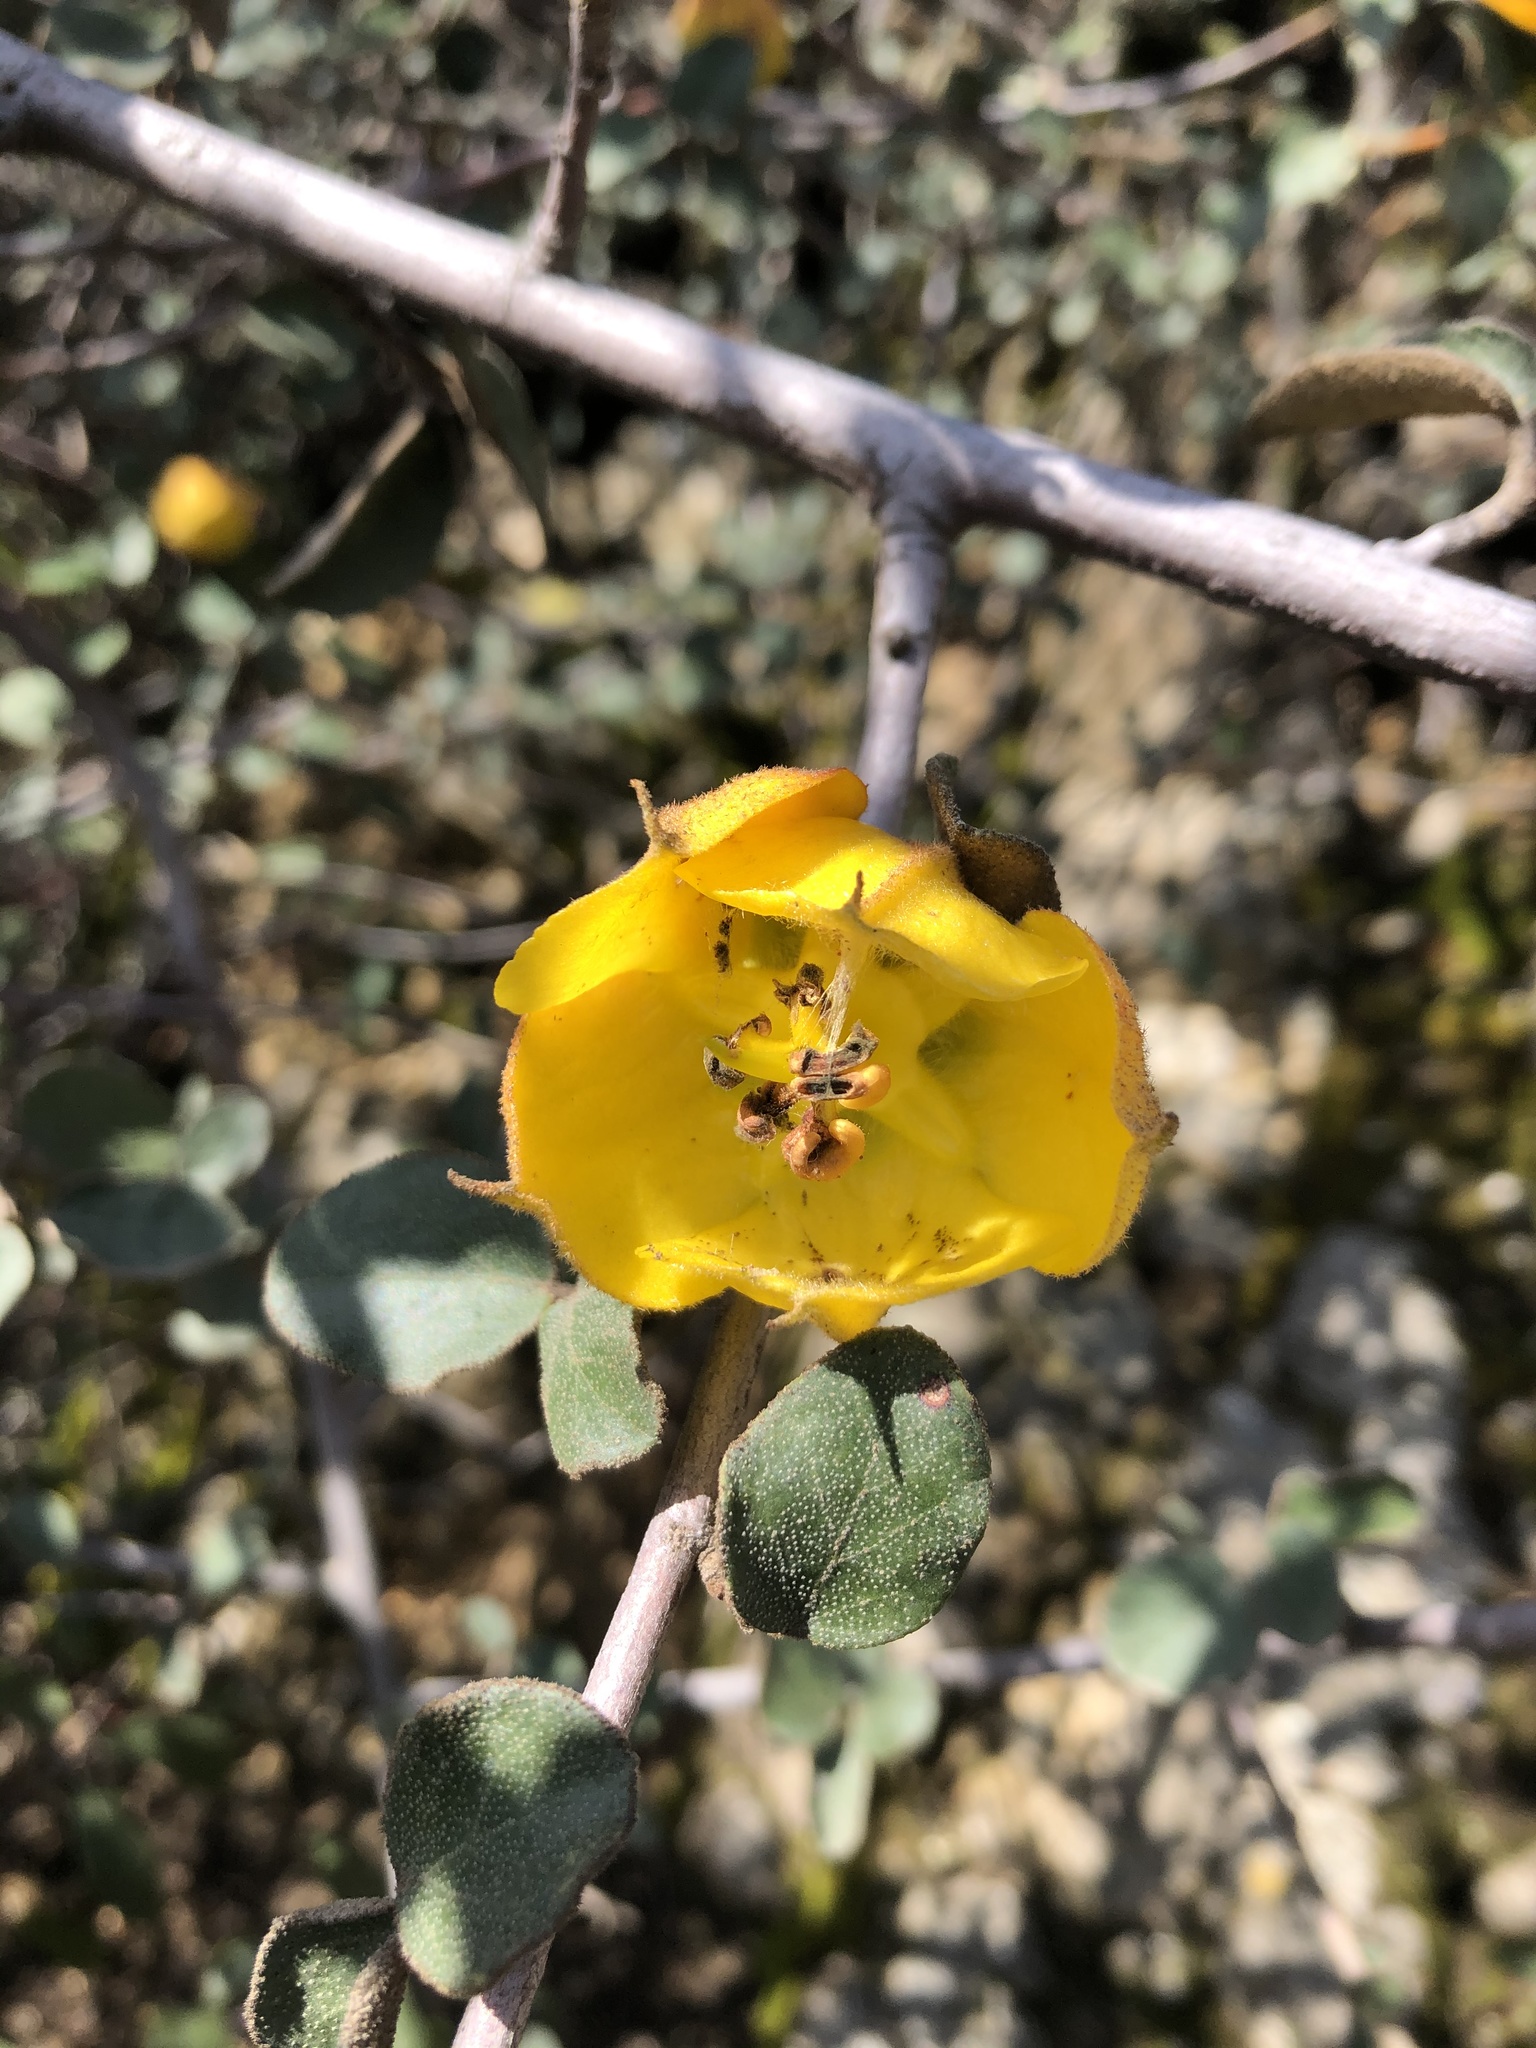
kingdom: Plantae
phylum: Tracheophyta
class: Magnoliopsida
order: Malvales
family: Malvaceae
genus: Fremontodendron
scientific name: Fremontodendron californicum
